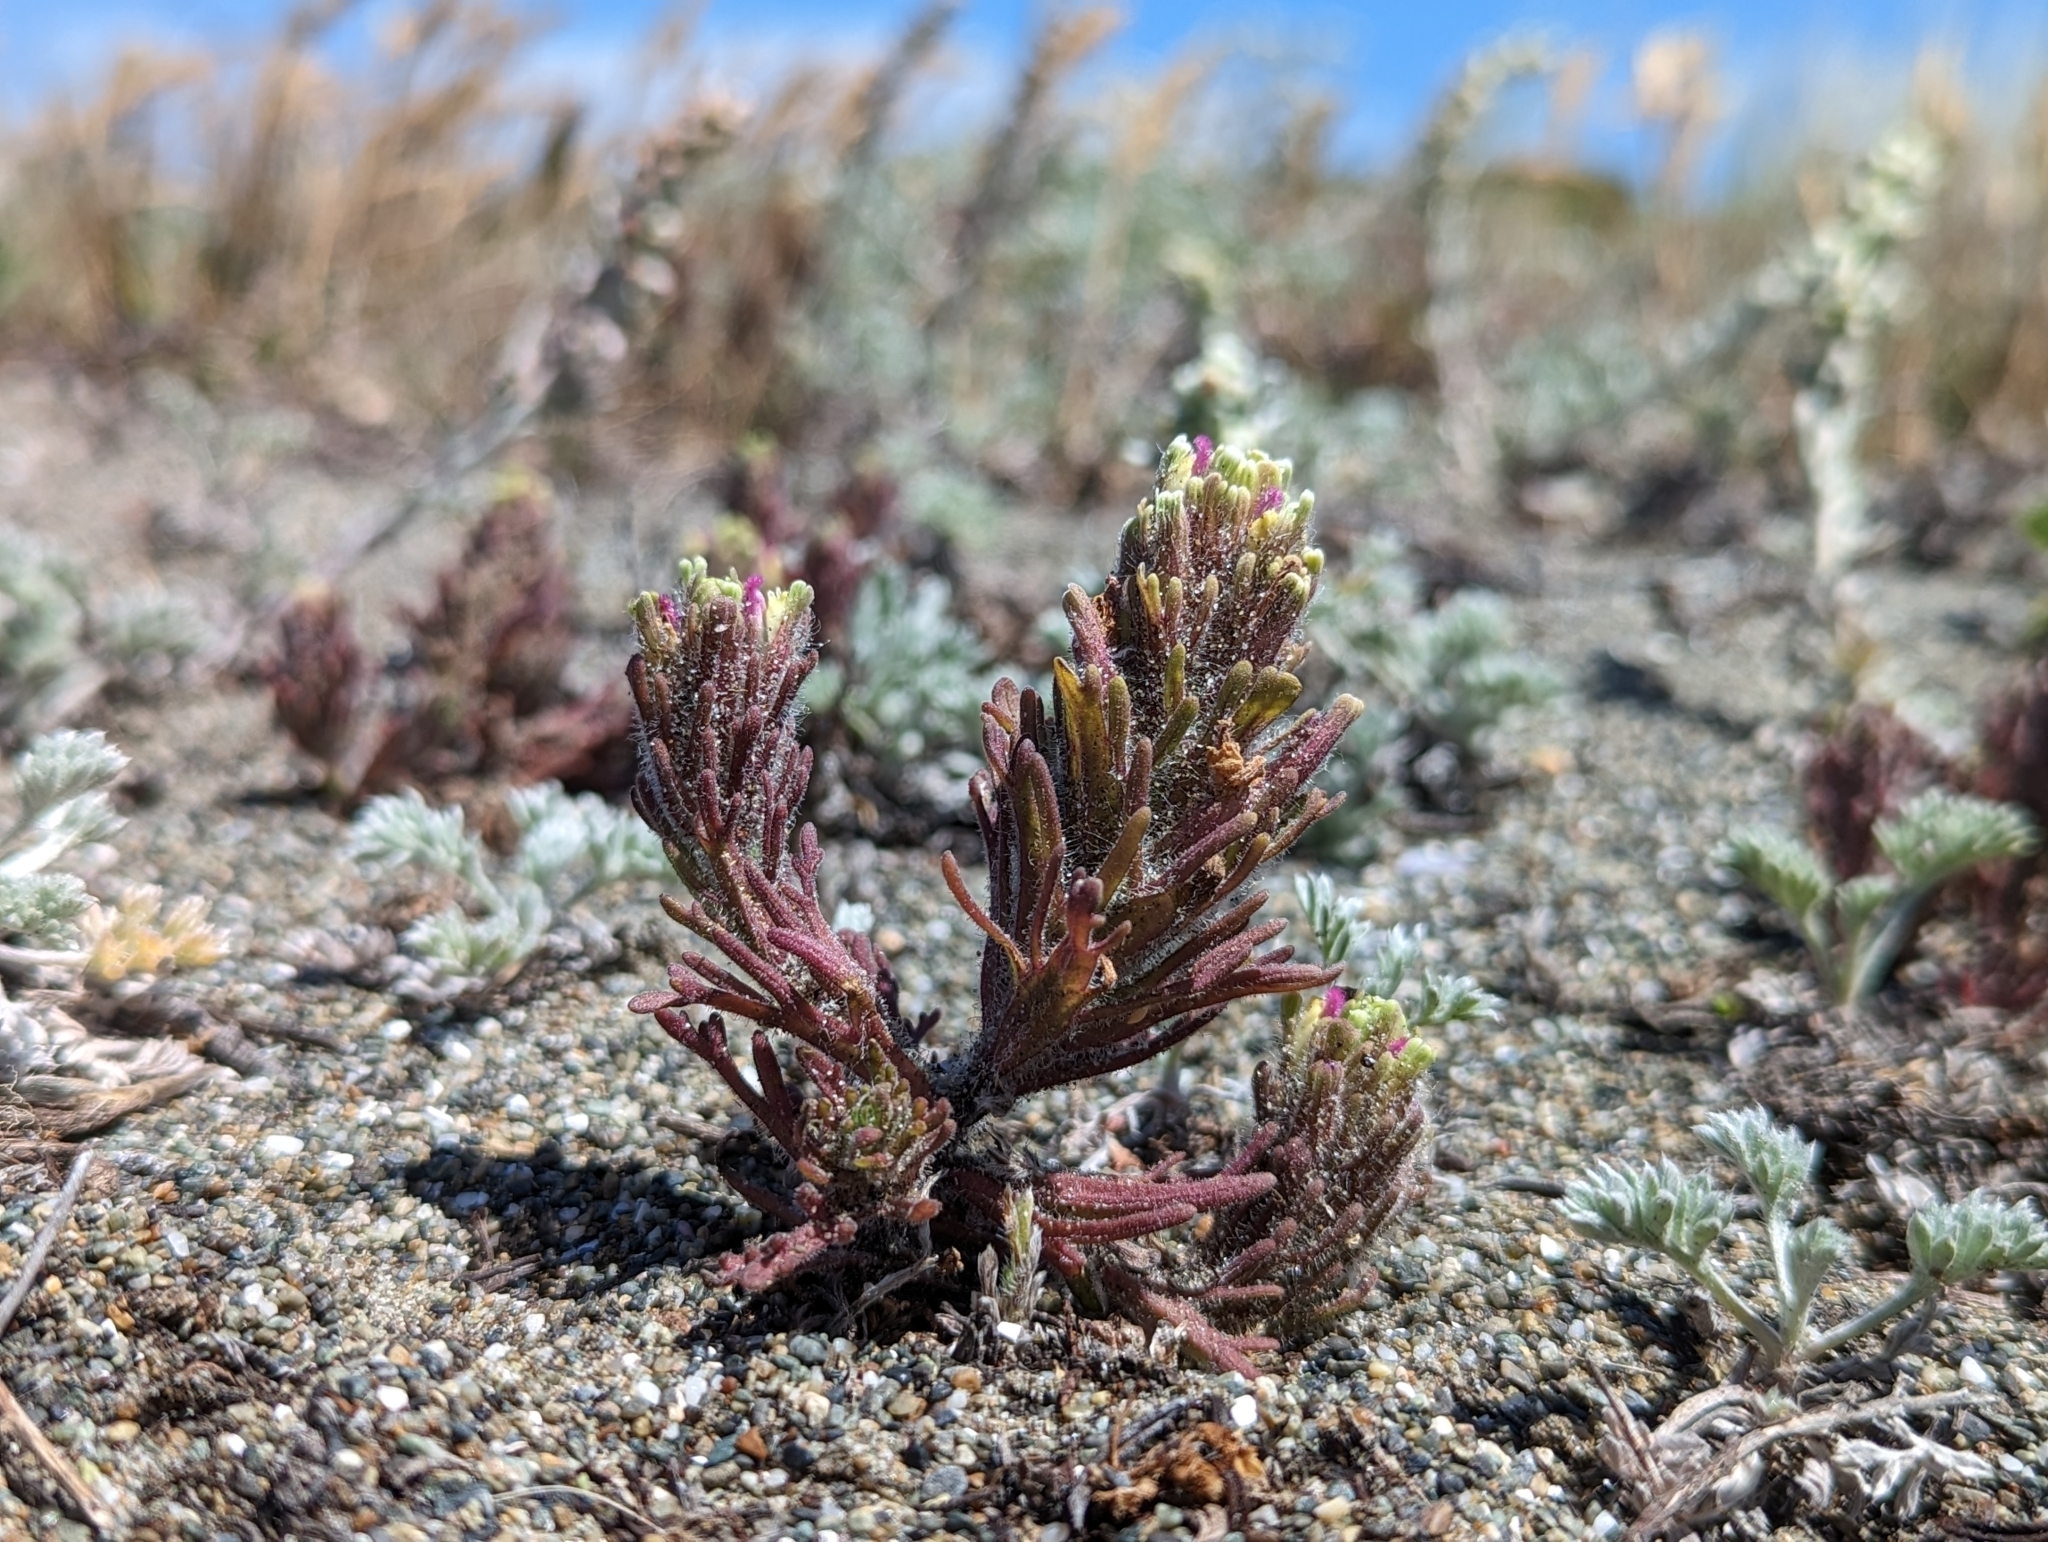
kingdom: Plantae
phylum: Tracheophyta
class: Magnoliopsida
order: Lamiales
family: Orobanchaceae
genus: Castilleja
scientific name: Castilleja exserta
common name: Purple owl-clover
